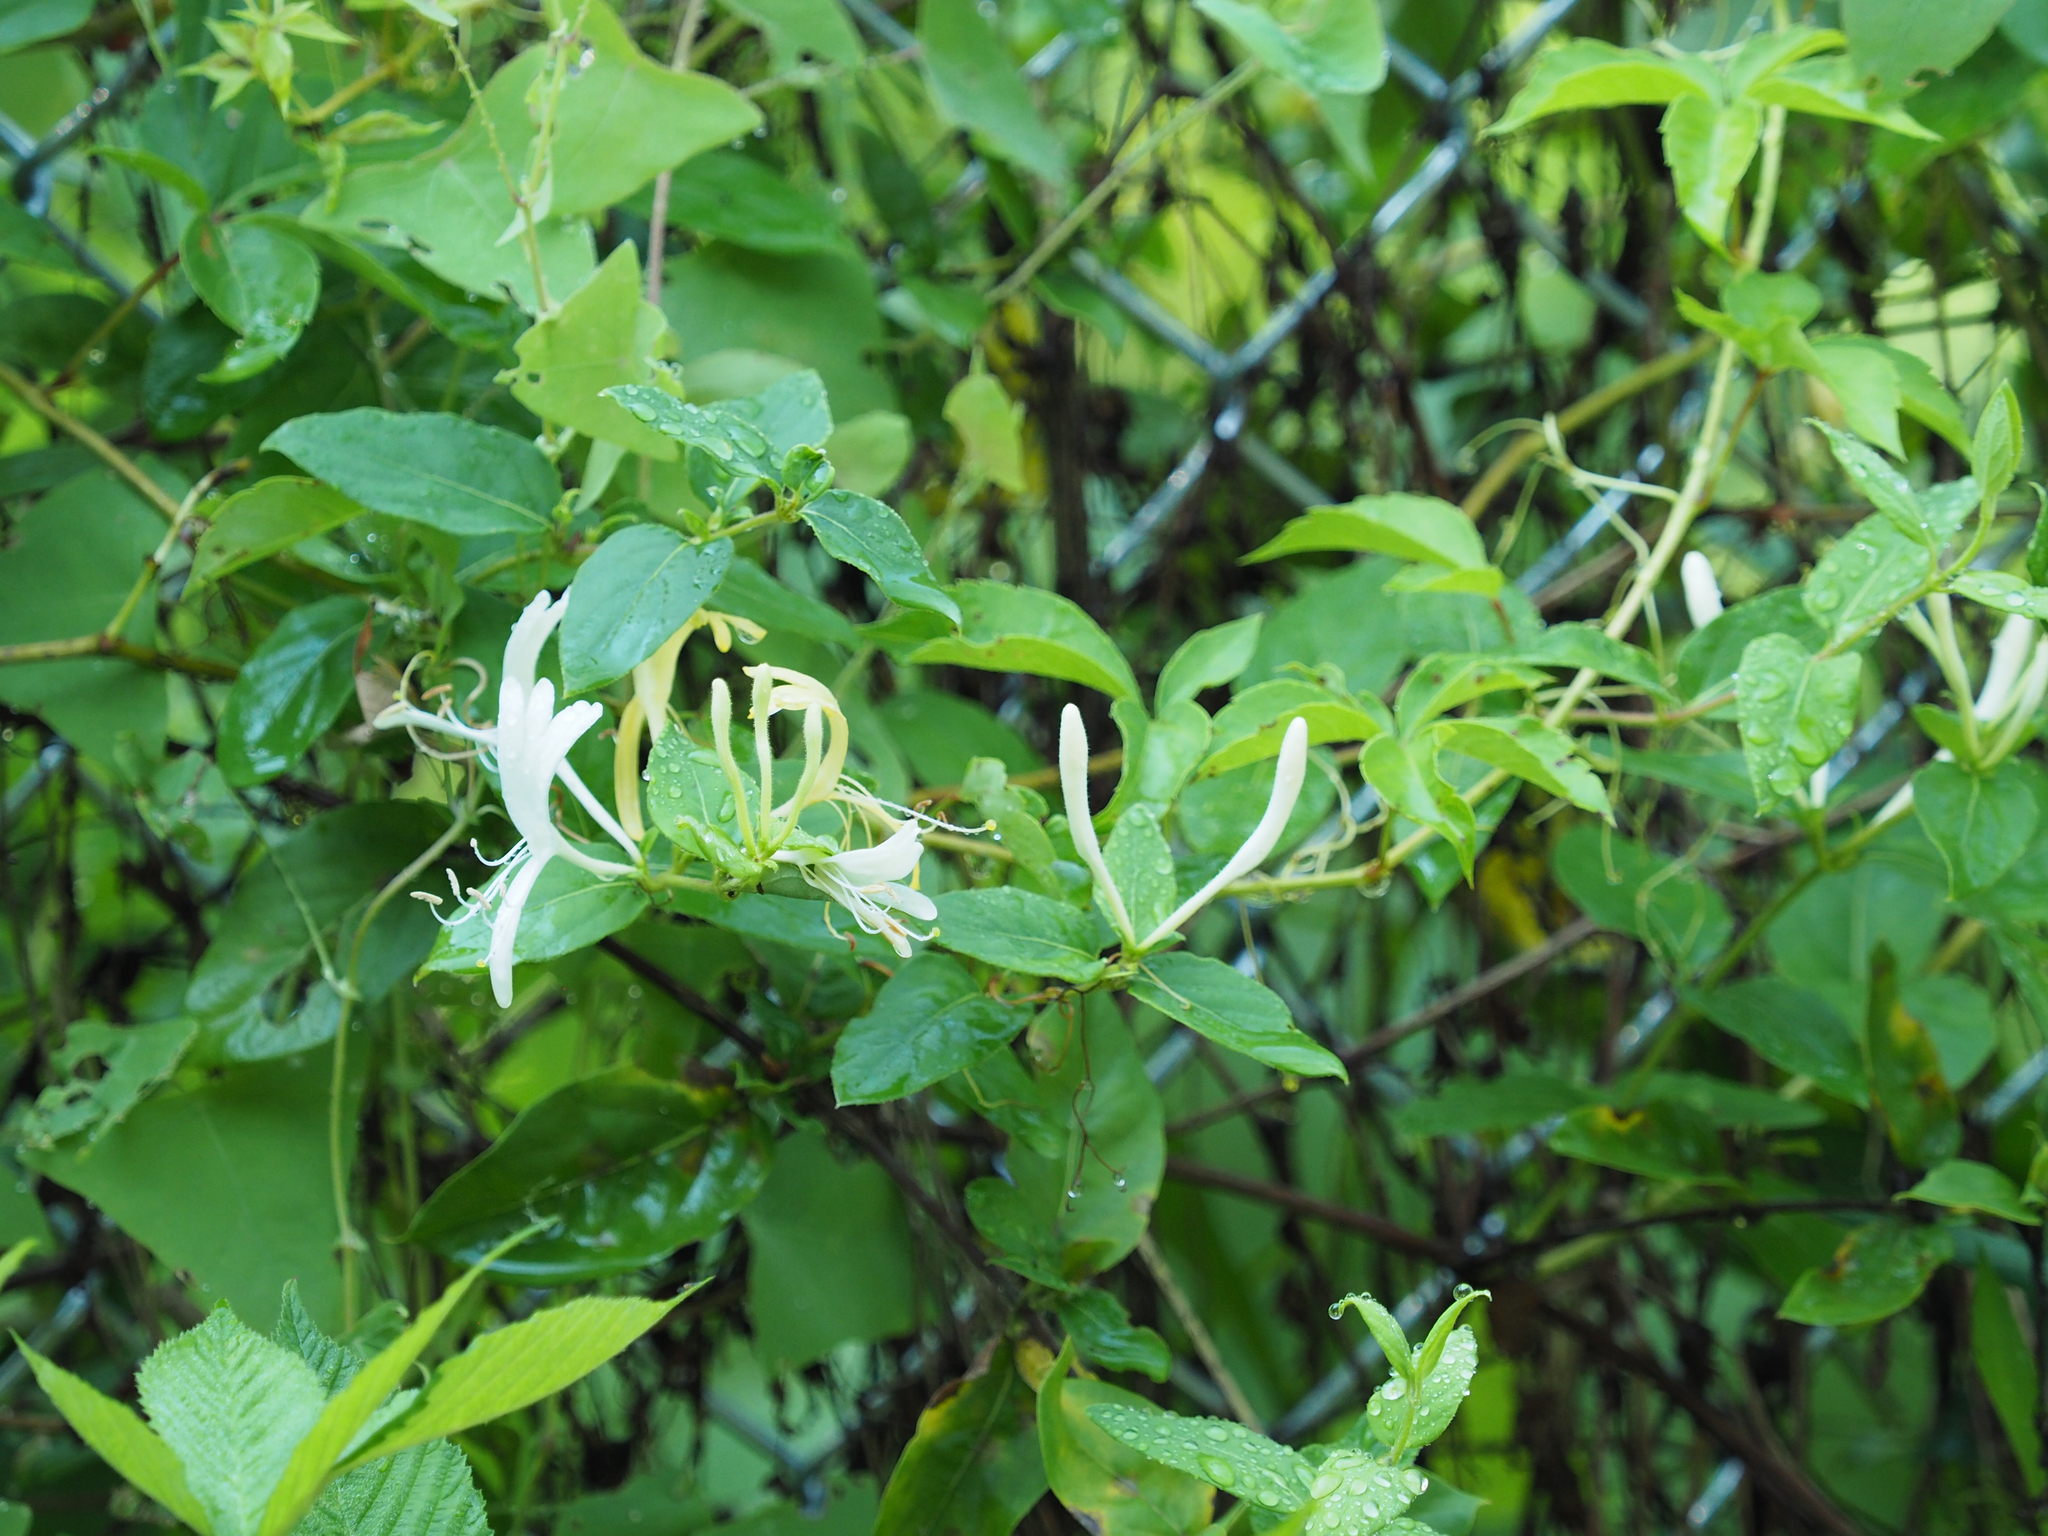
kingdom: Plantae
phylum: Tracheophyta
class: Magnoliopsida
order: Dipsacales
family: Caprifoliaceae
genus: Lonicera
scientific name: Lonicera japonica
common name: Japanese honeysuckle
